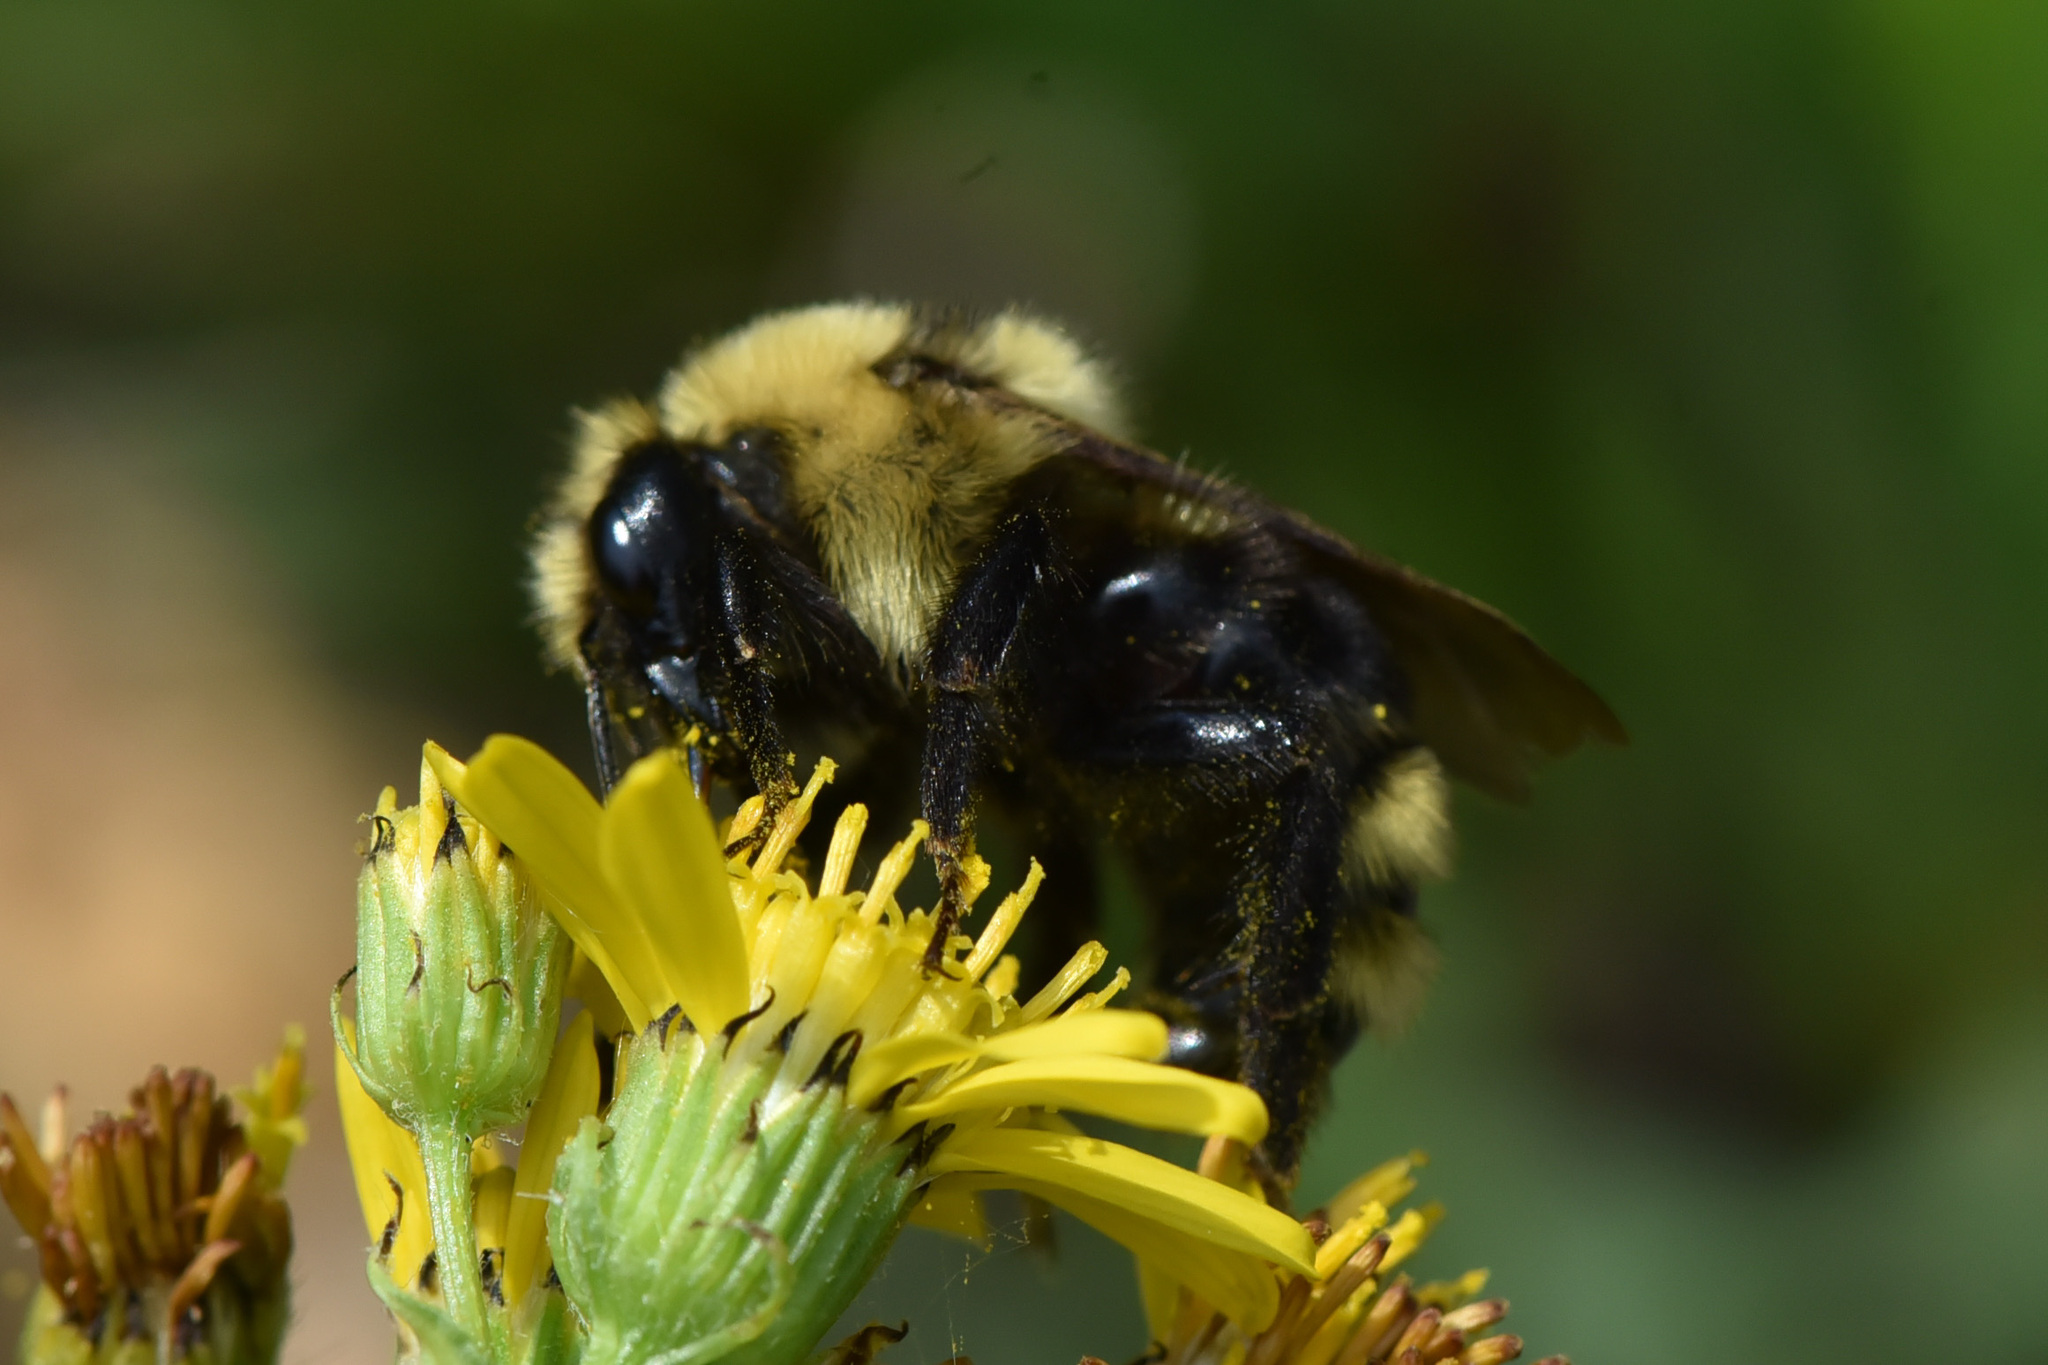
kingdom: Animalia
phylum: Arthropoda
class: Insecta
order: Hymenoptera
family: Apidae
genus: Bombus
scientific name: Bombus insularis
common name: Indiscriminate cuckoo bumble bee
